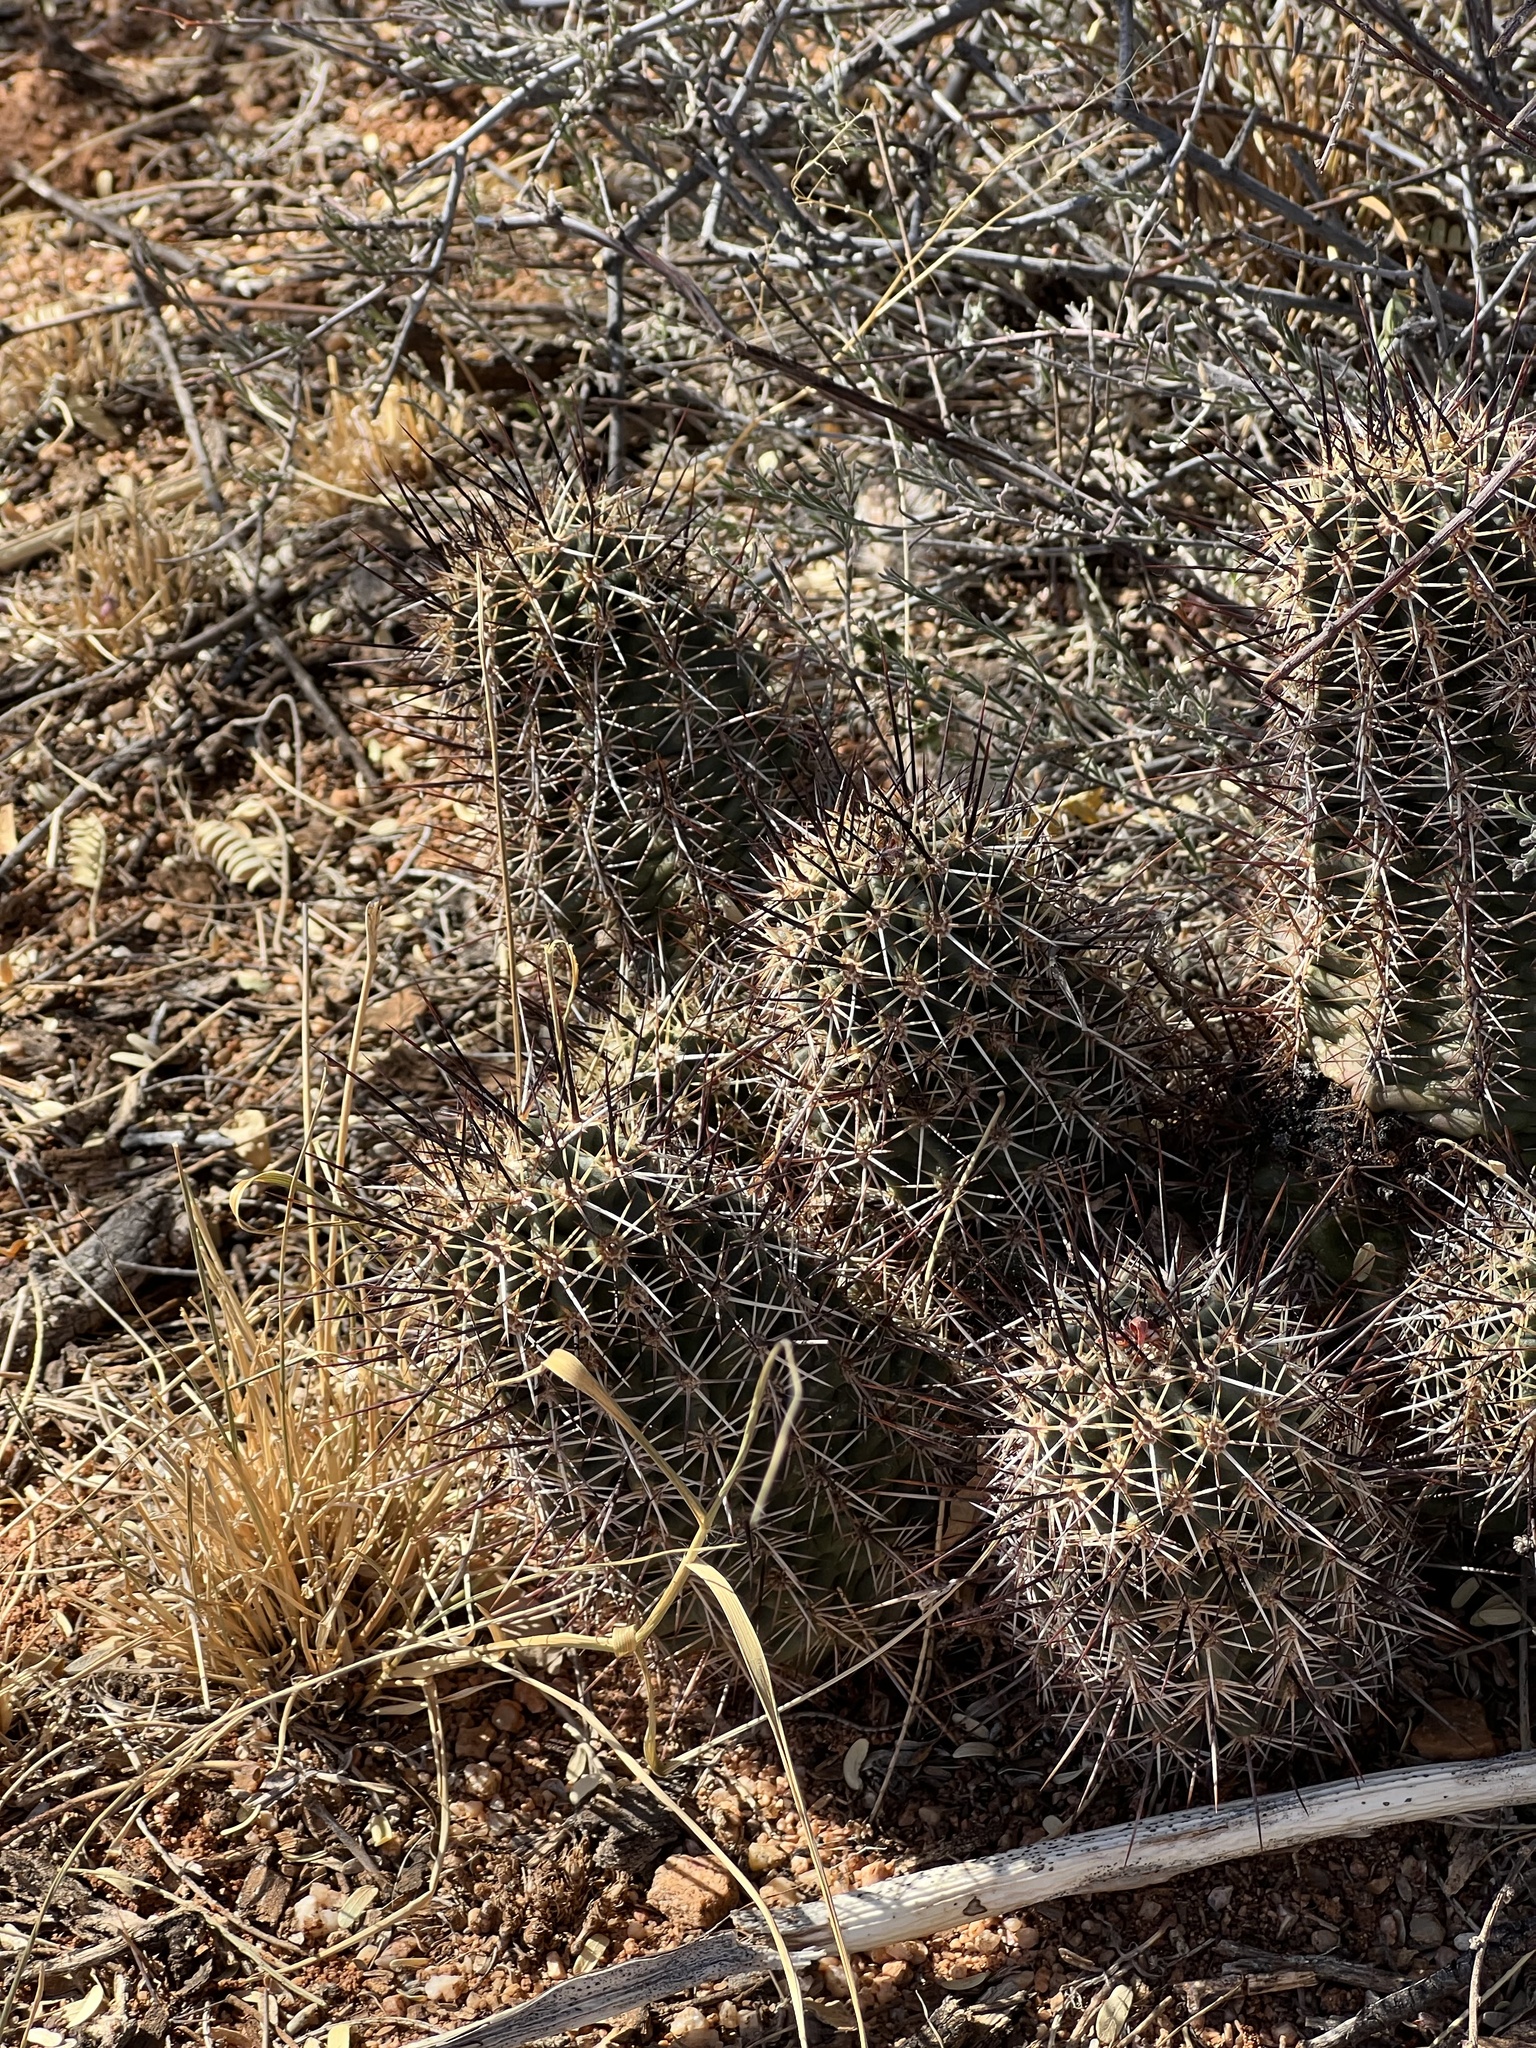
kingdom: Plantae
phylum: Tracheophyta
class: Magnoliopsida
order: Caryophyllales
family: Cactaceae
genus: Echinocereus
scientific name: Echinocereus fasciculatus
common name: Bundle hedgehog
